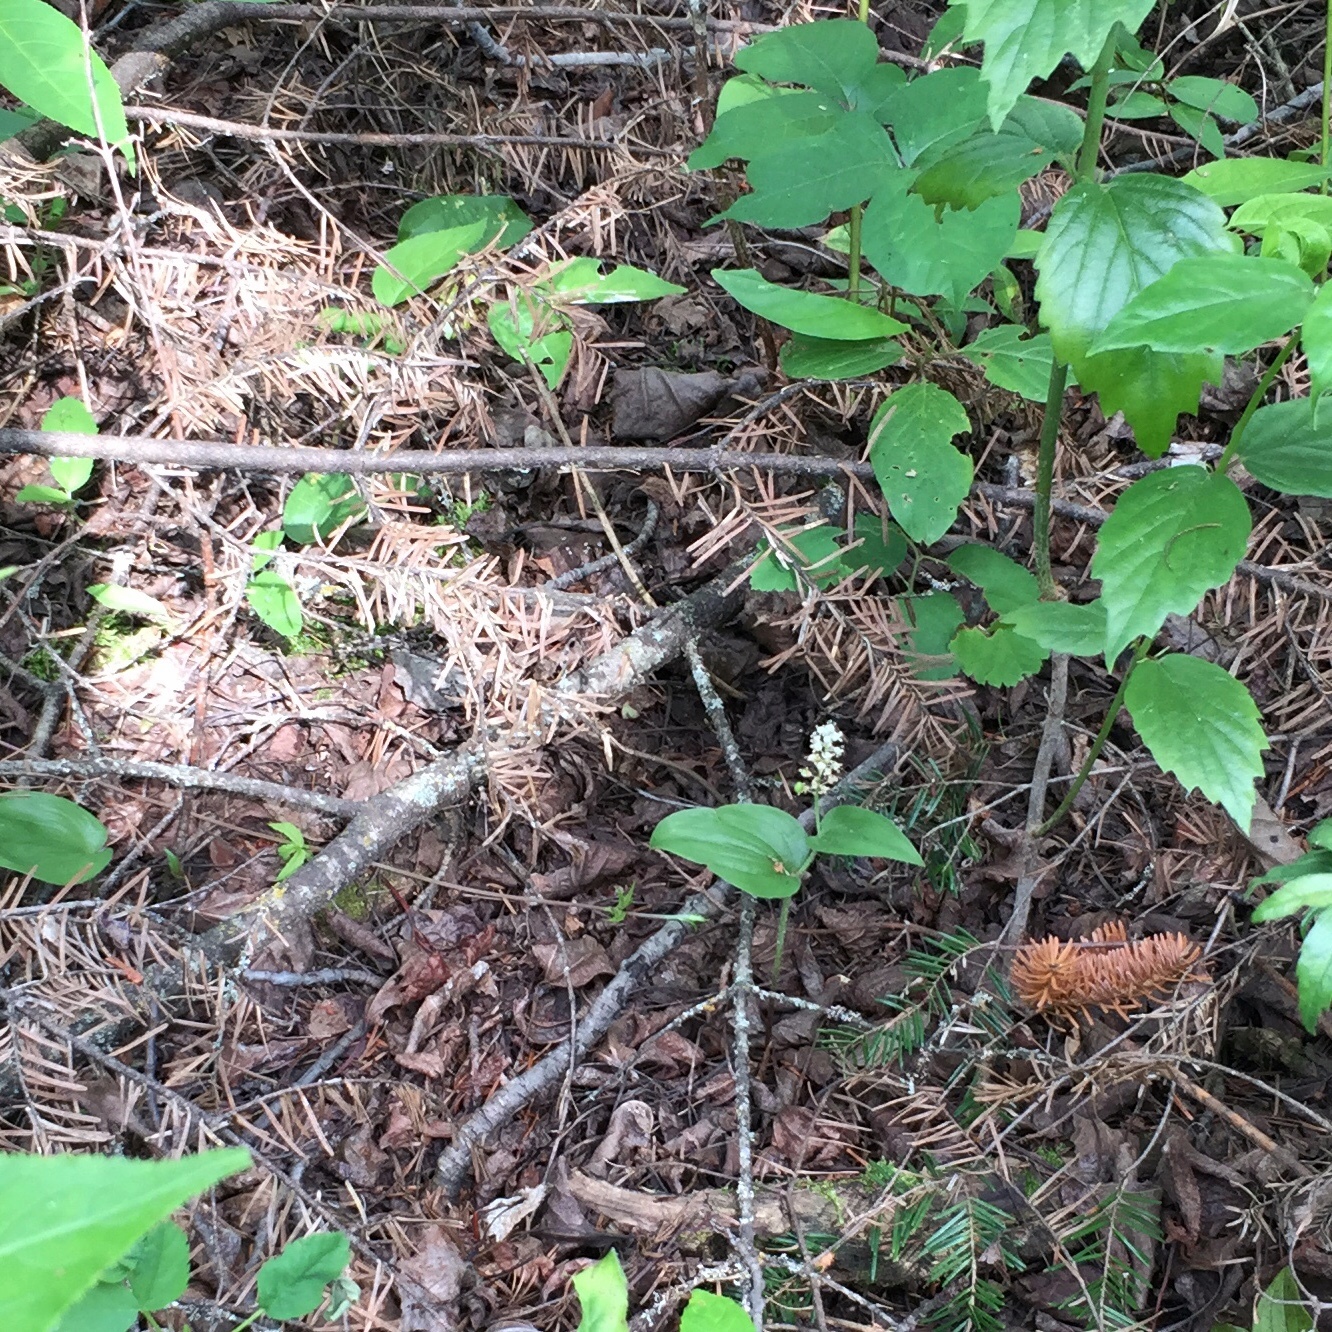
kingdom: Plantae
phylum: Tracheophyta
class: Liliopsida
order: Asparagales
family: Asparagaceae
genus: Maianthemum
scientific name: Maianthemum canadense
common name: False lily-of-the-valley
